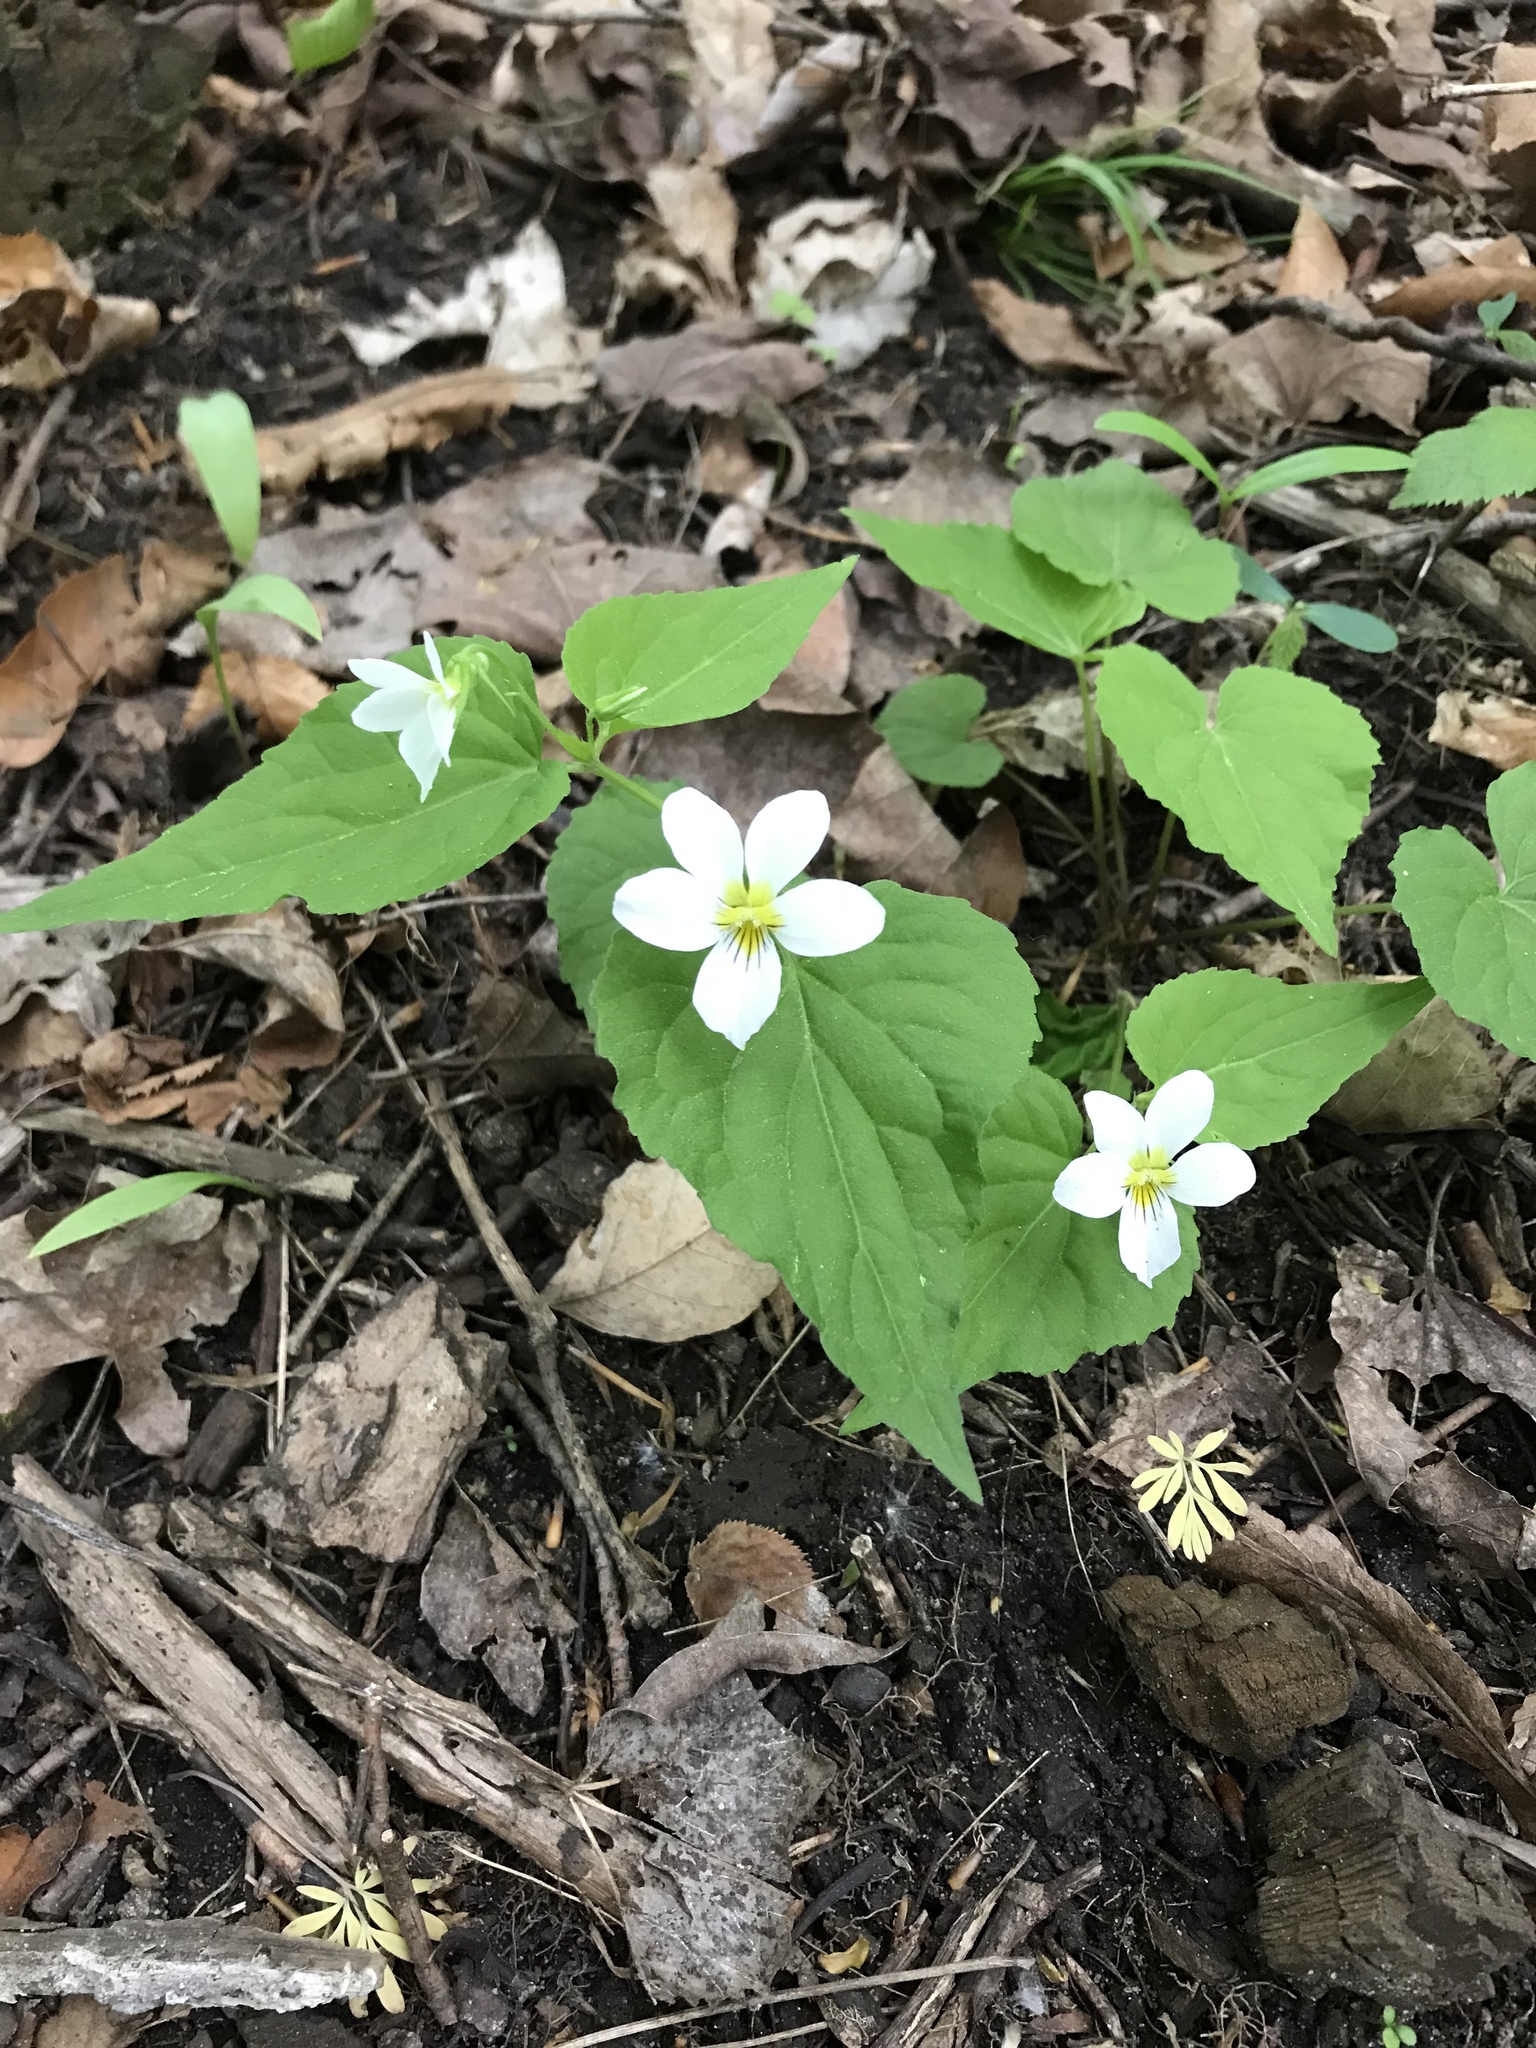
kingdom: Plantae
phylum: Tracheophyta
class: Magnoliopsida
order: Malpighiales
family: Violaceae
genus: Viola
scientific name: Viola canadensis
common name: Canada violet
